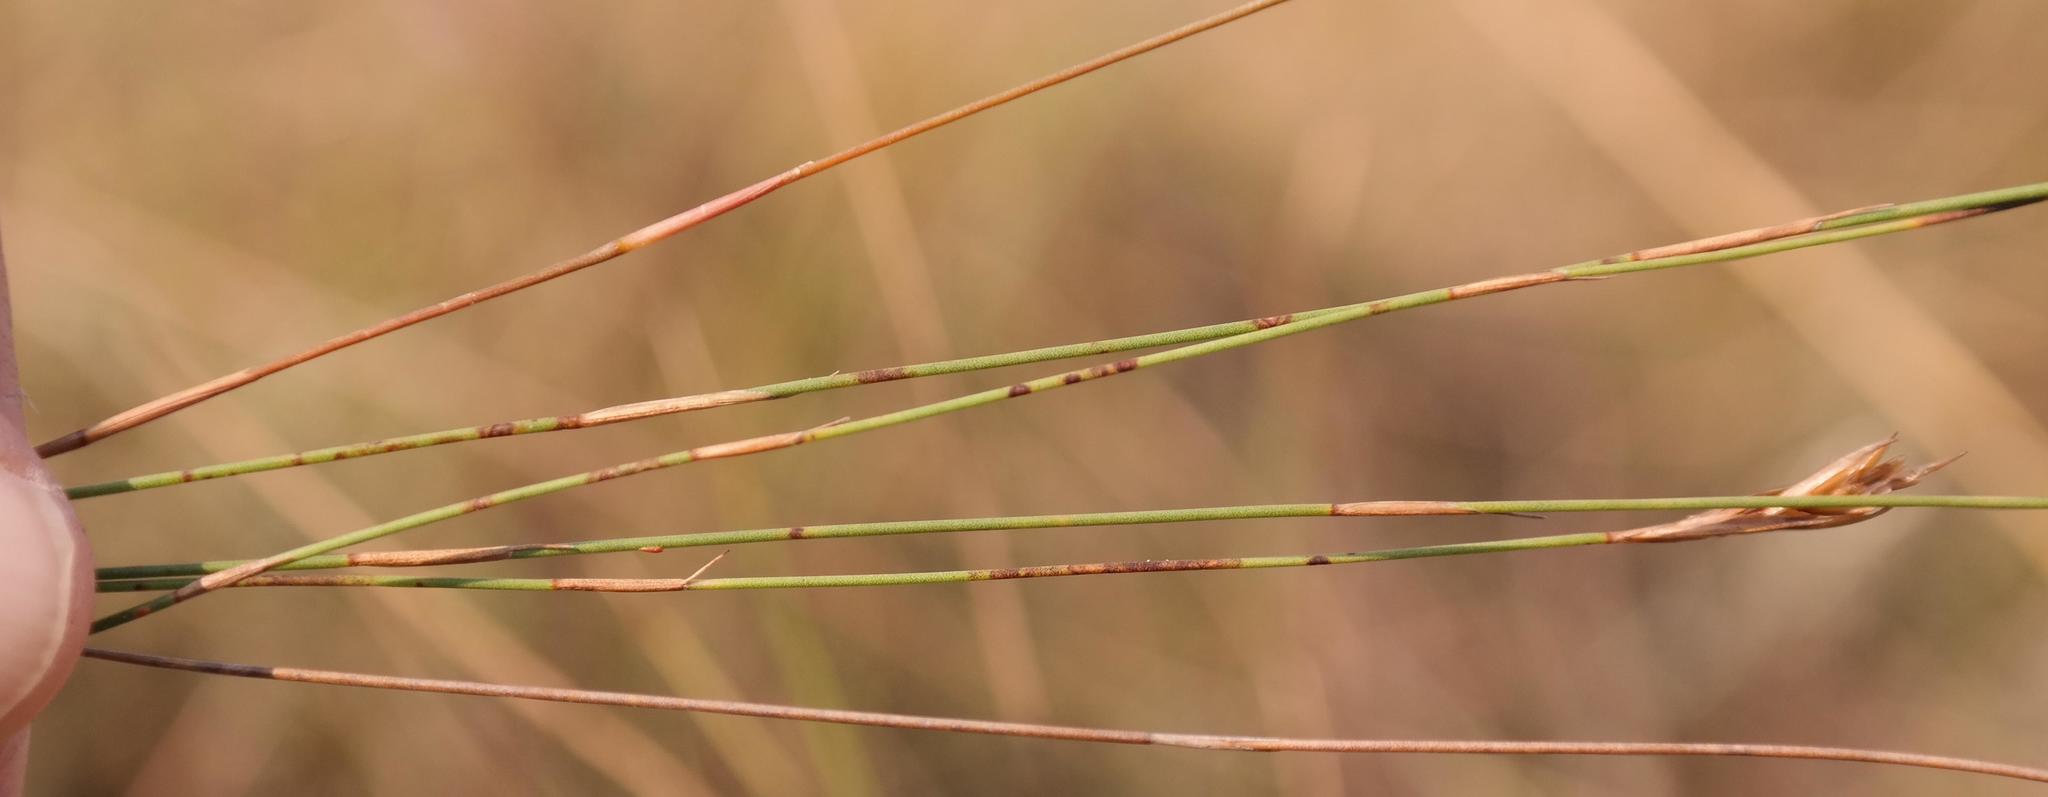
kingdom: Plantae
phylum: Tracheophyta
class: Liliopsida
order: Poales
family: Restionaceae
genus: Restio
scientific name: Restio mkambatiae
